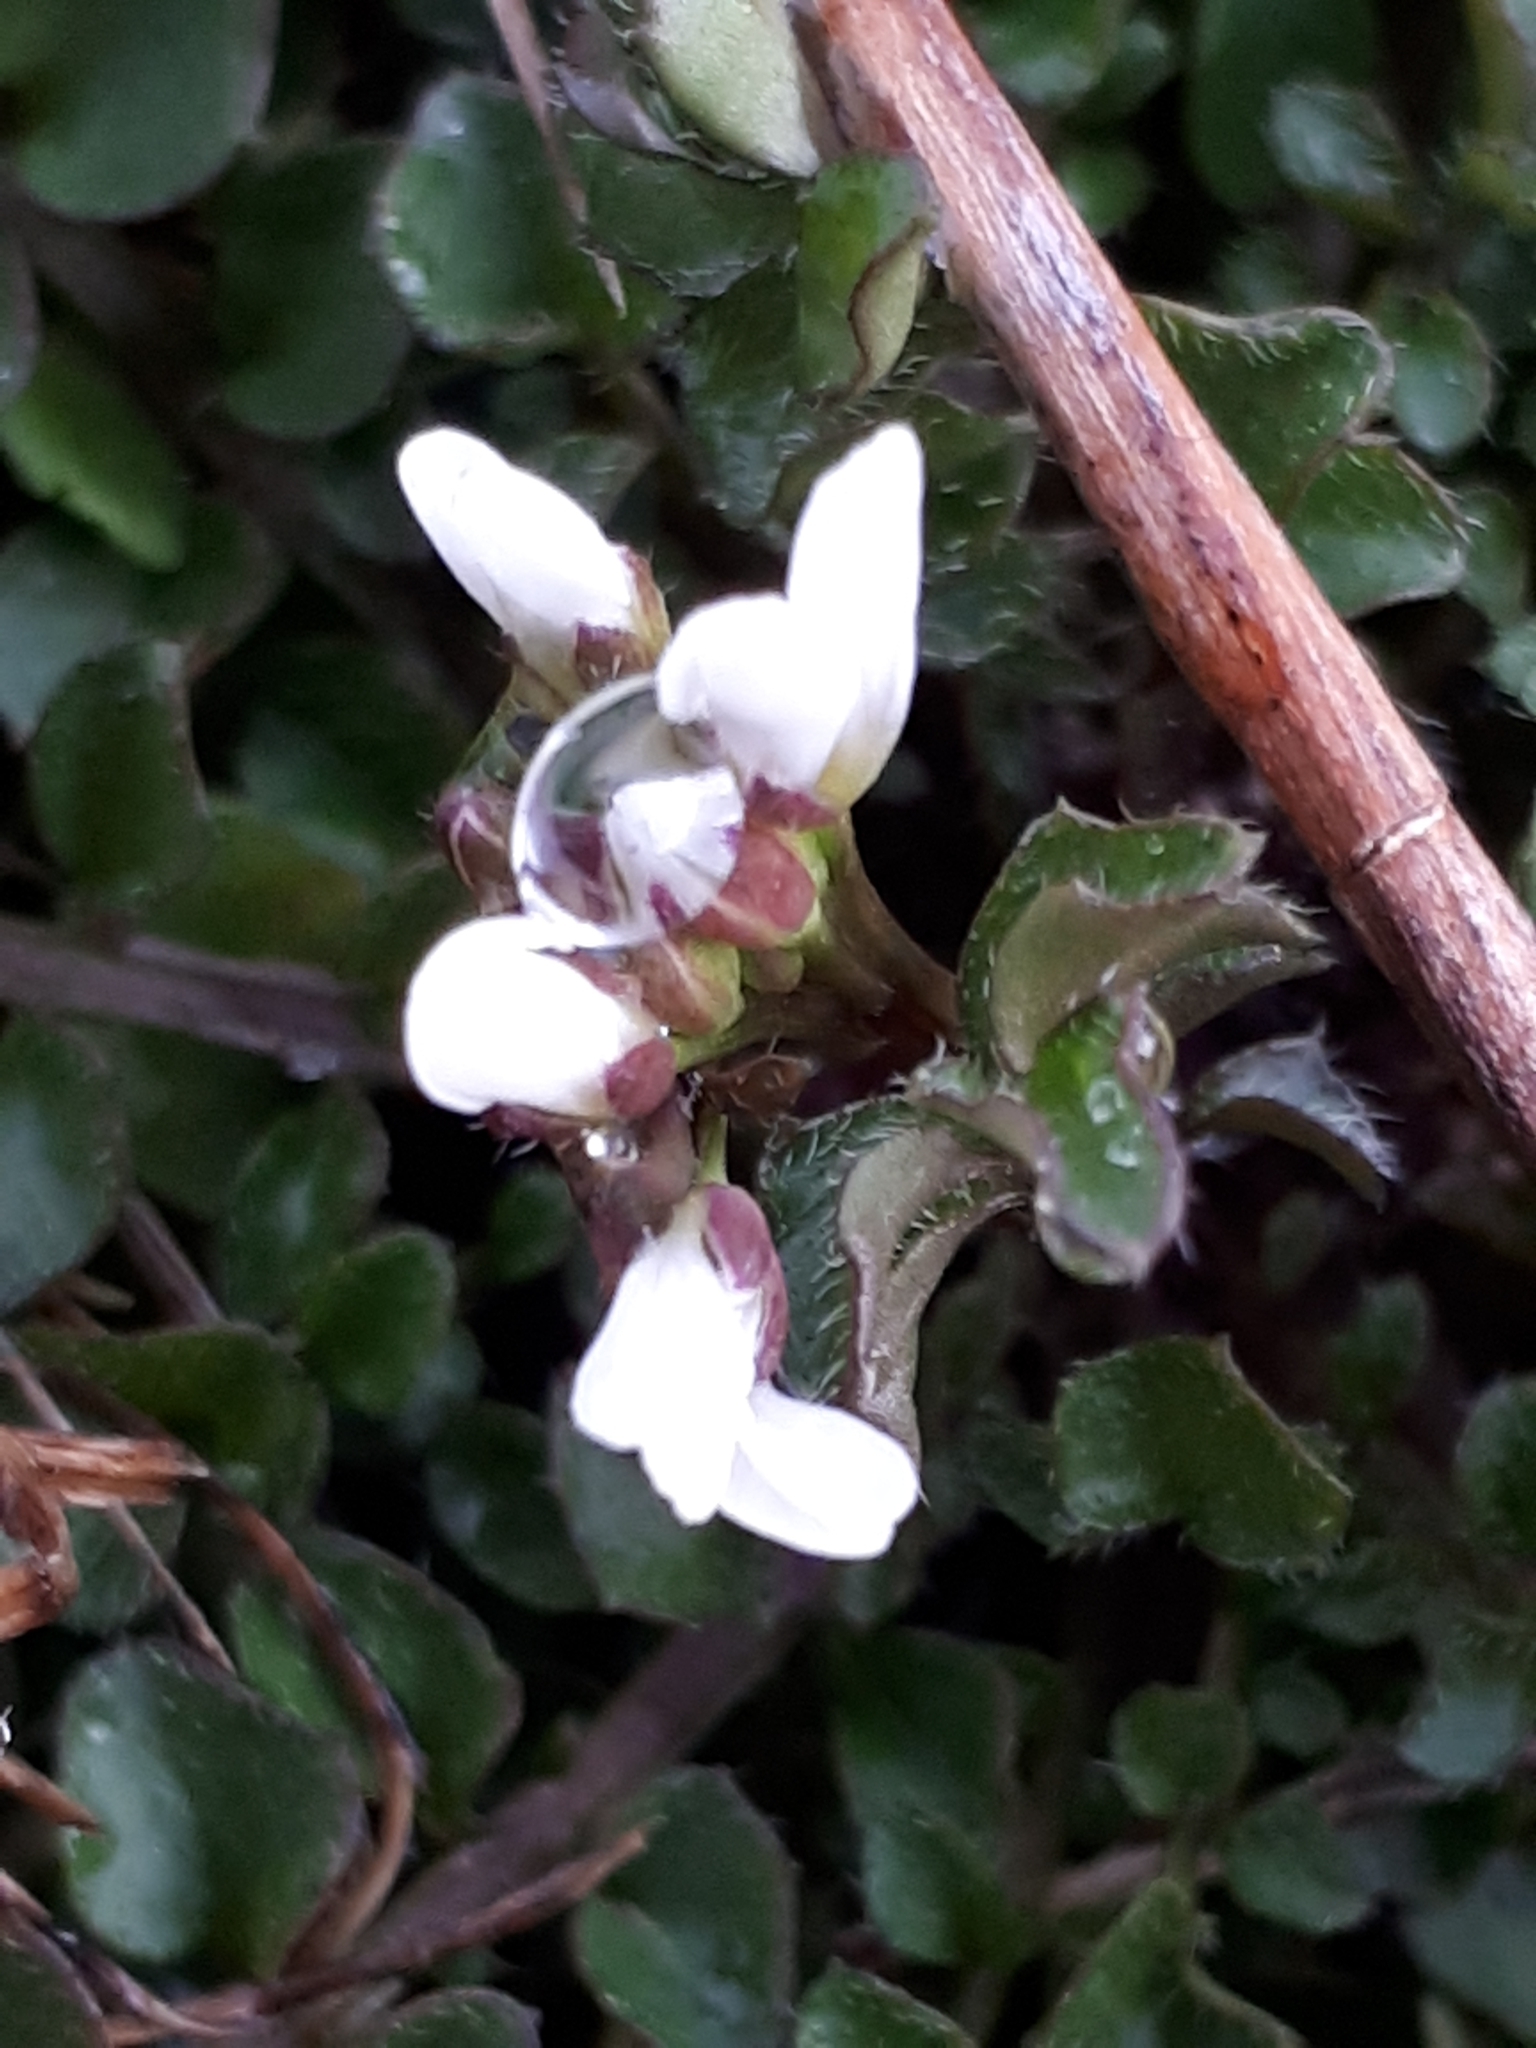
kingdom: Plantae
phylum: Tracheophyta
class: Magnoliopsida
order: Brassicales
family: Brassicaceae
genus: Cardamine
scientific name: Cardamine hirsuta
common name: Hairy bittercress
